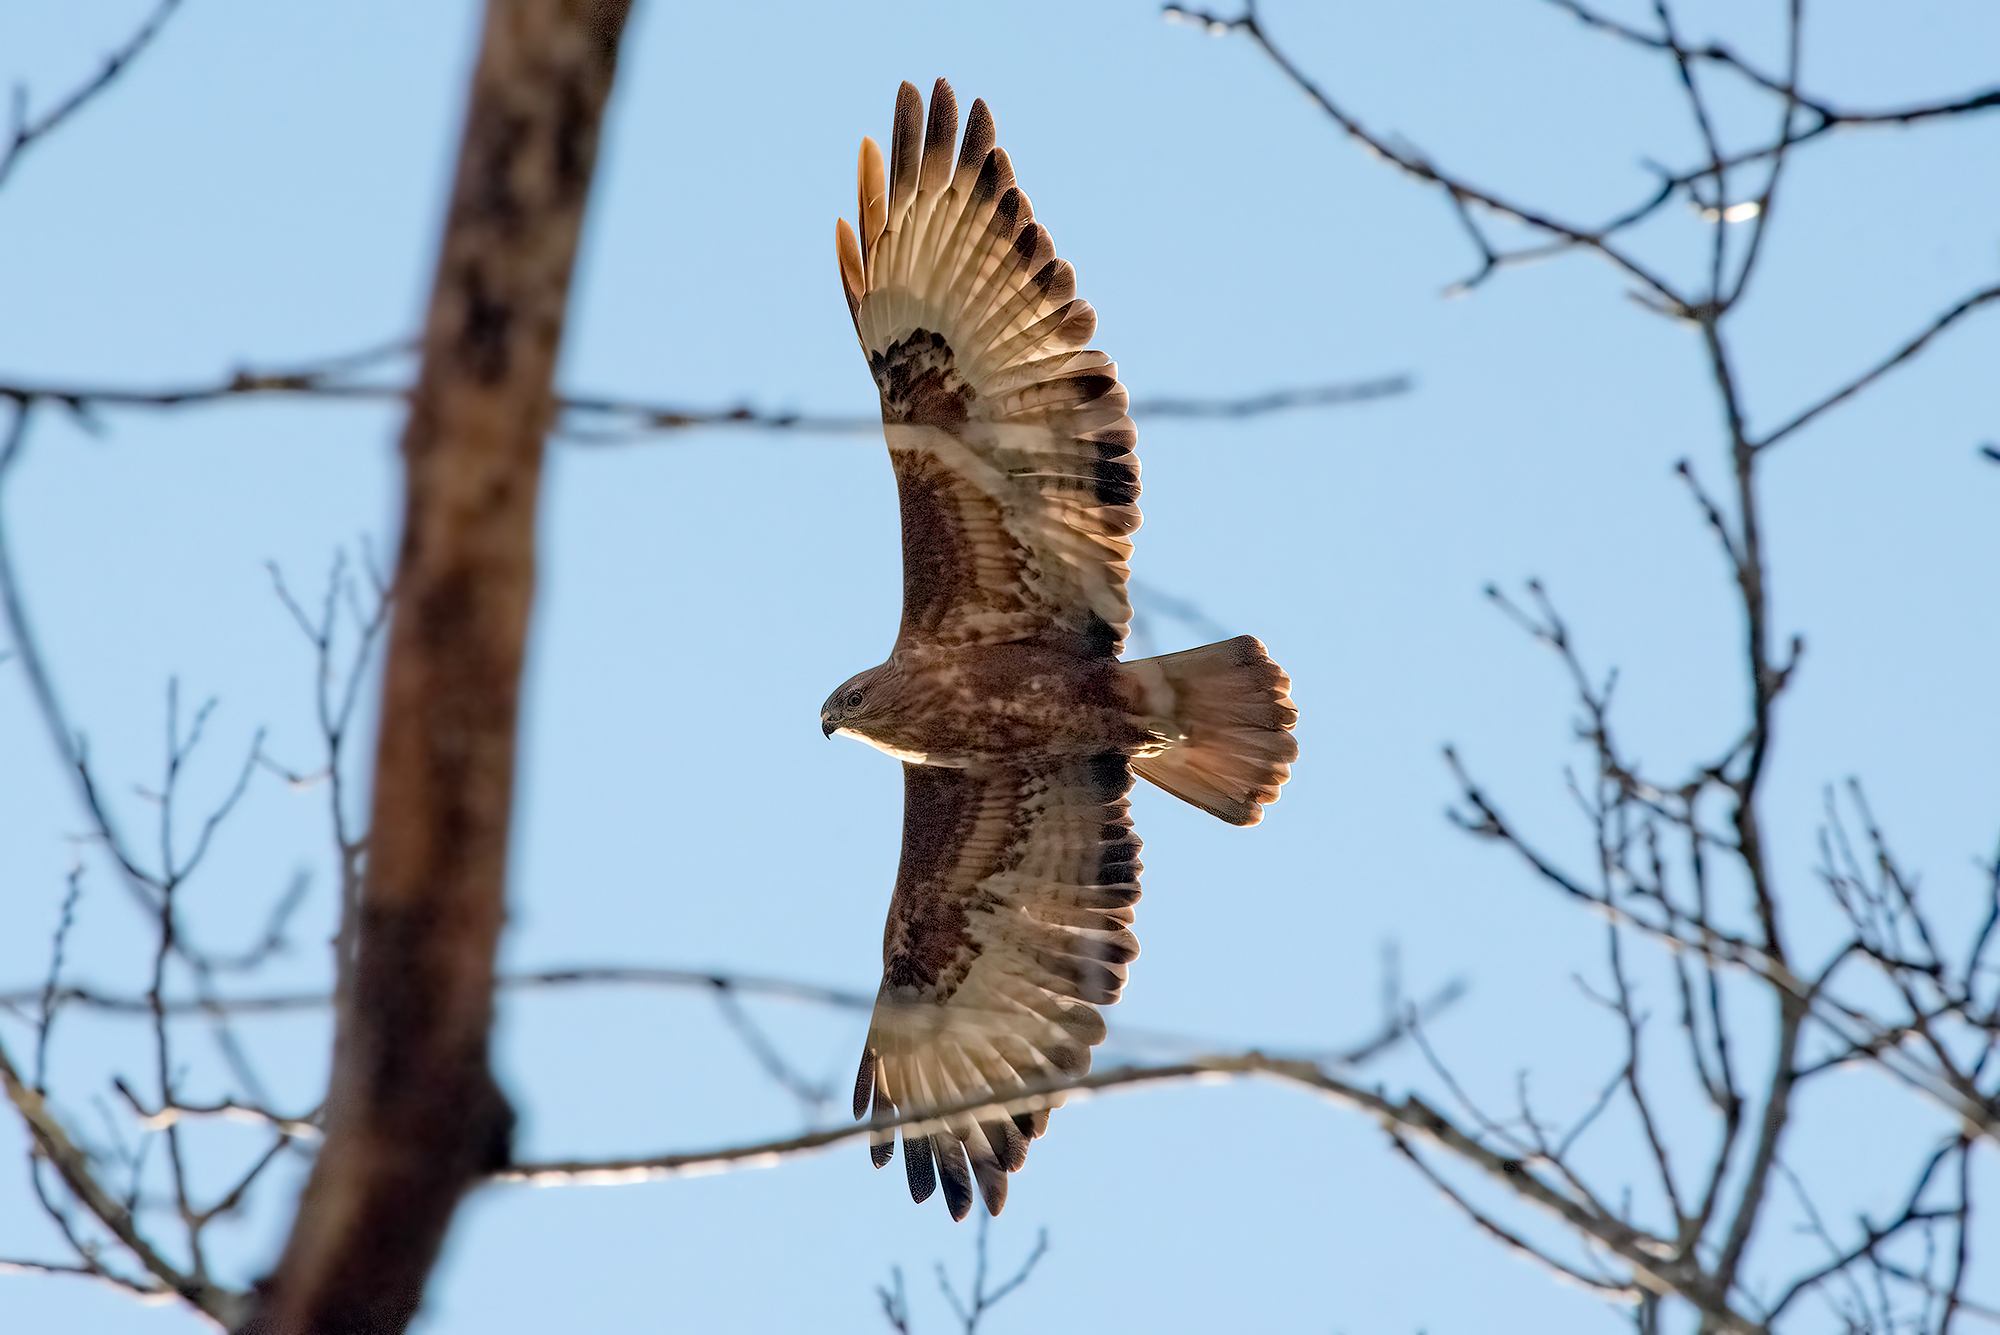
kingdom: Animalia
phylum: Chordata
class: Aves
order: Accipitriformes
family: Accipitridae
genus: Buteo
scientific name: Buteo buteo
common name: Common buzzard
